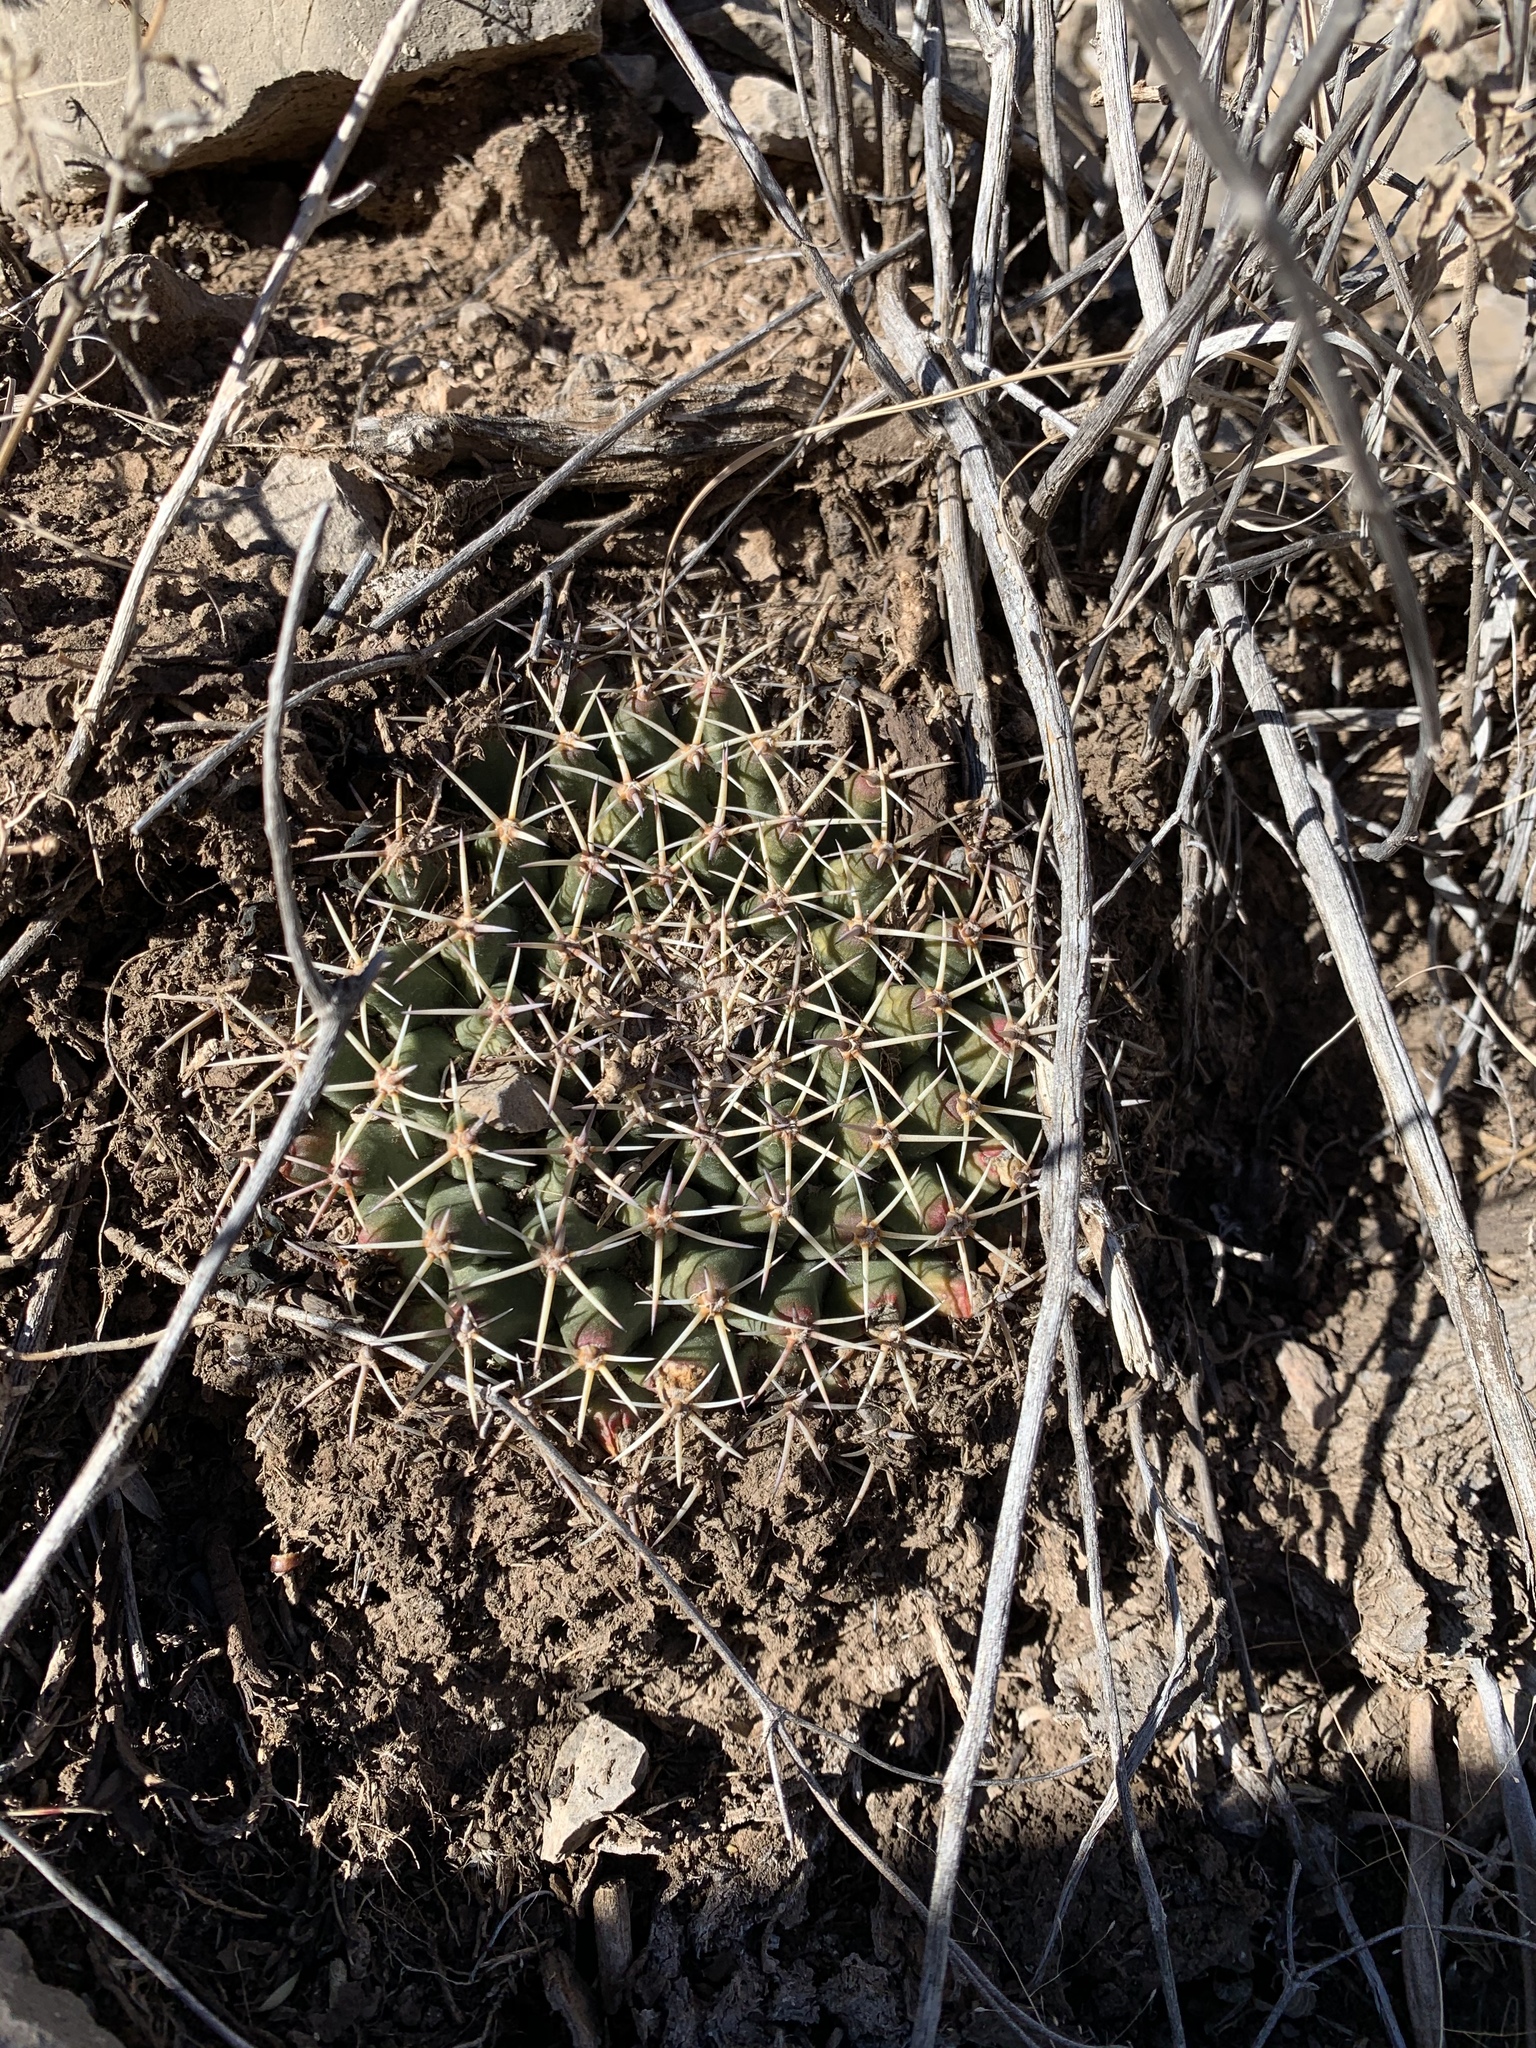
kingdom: Plantae
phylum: Tracheophyta
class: Magnoliopsida
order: Caryophyllales
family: Cactaceae
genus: Mammillaria
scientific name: Mammillaria heyderi
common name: Little nipple cactus
